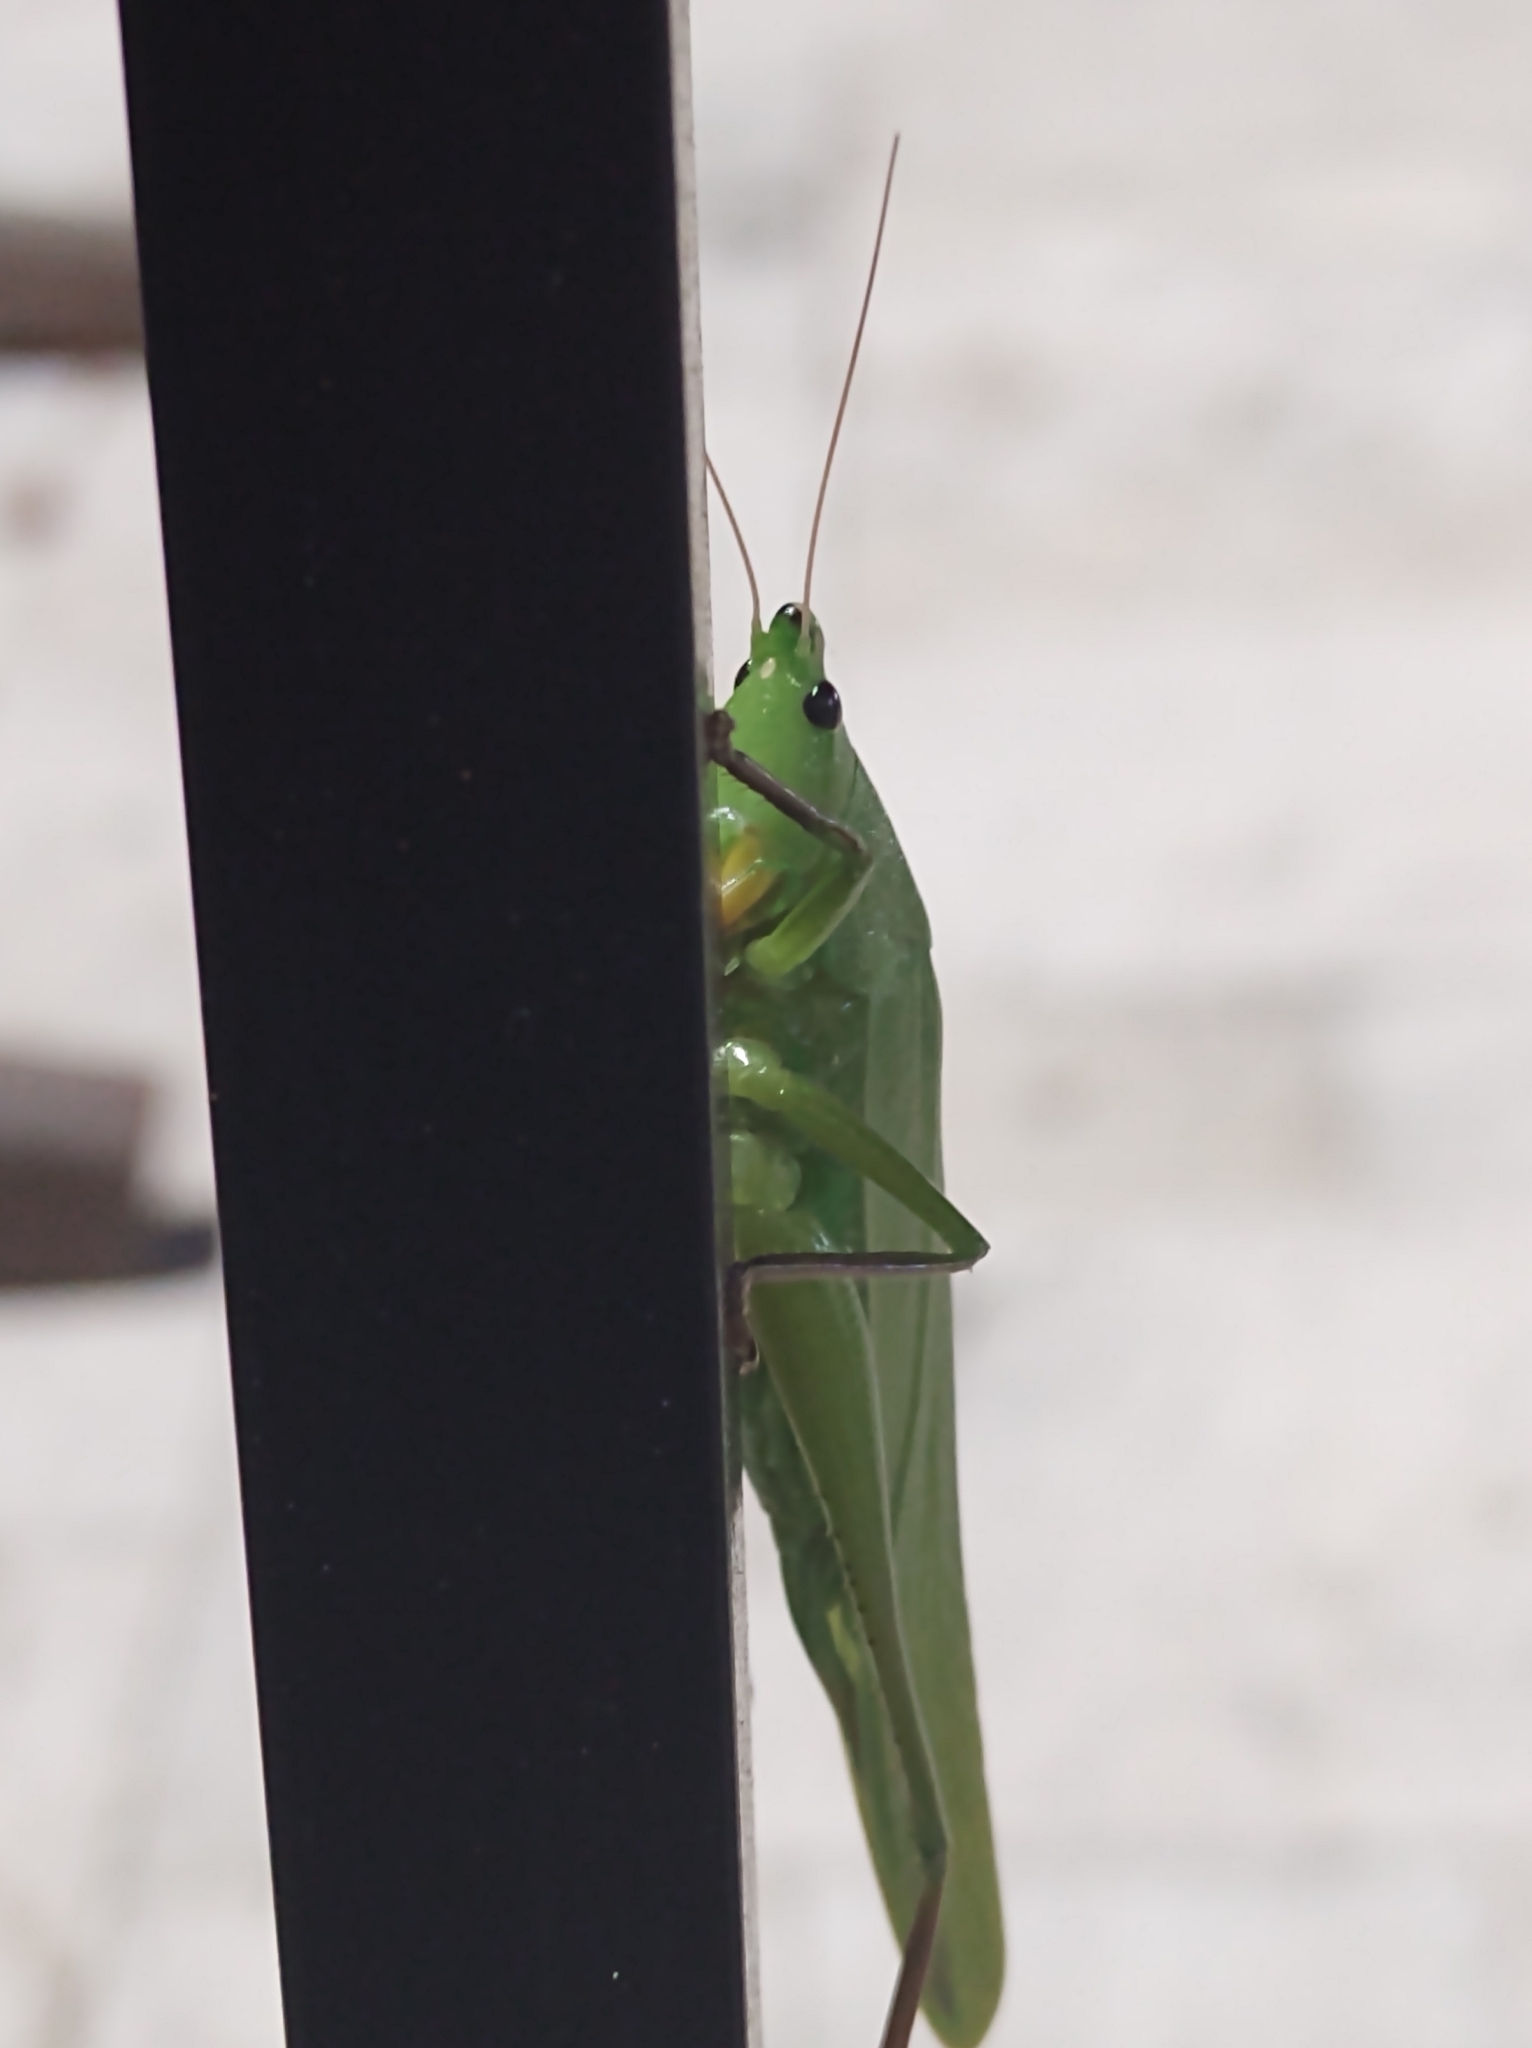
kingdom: Animalia
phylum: Arthropoda
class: Insecta
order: Orthoptera
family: Tettigoniidae
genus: Neoconocephalus
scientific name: Neoconocephalus triops
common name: Broad-tipped conehead
